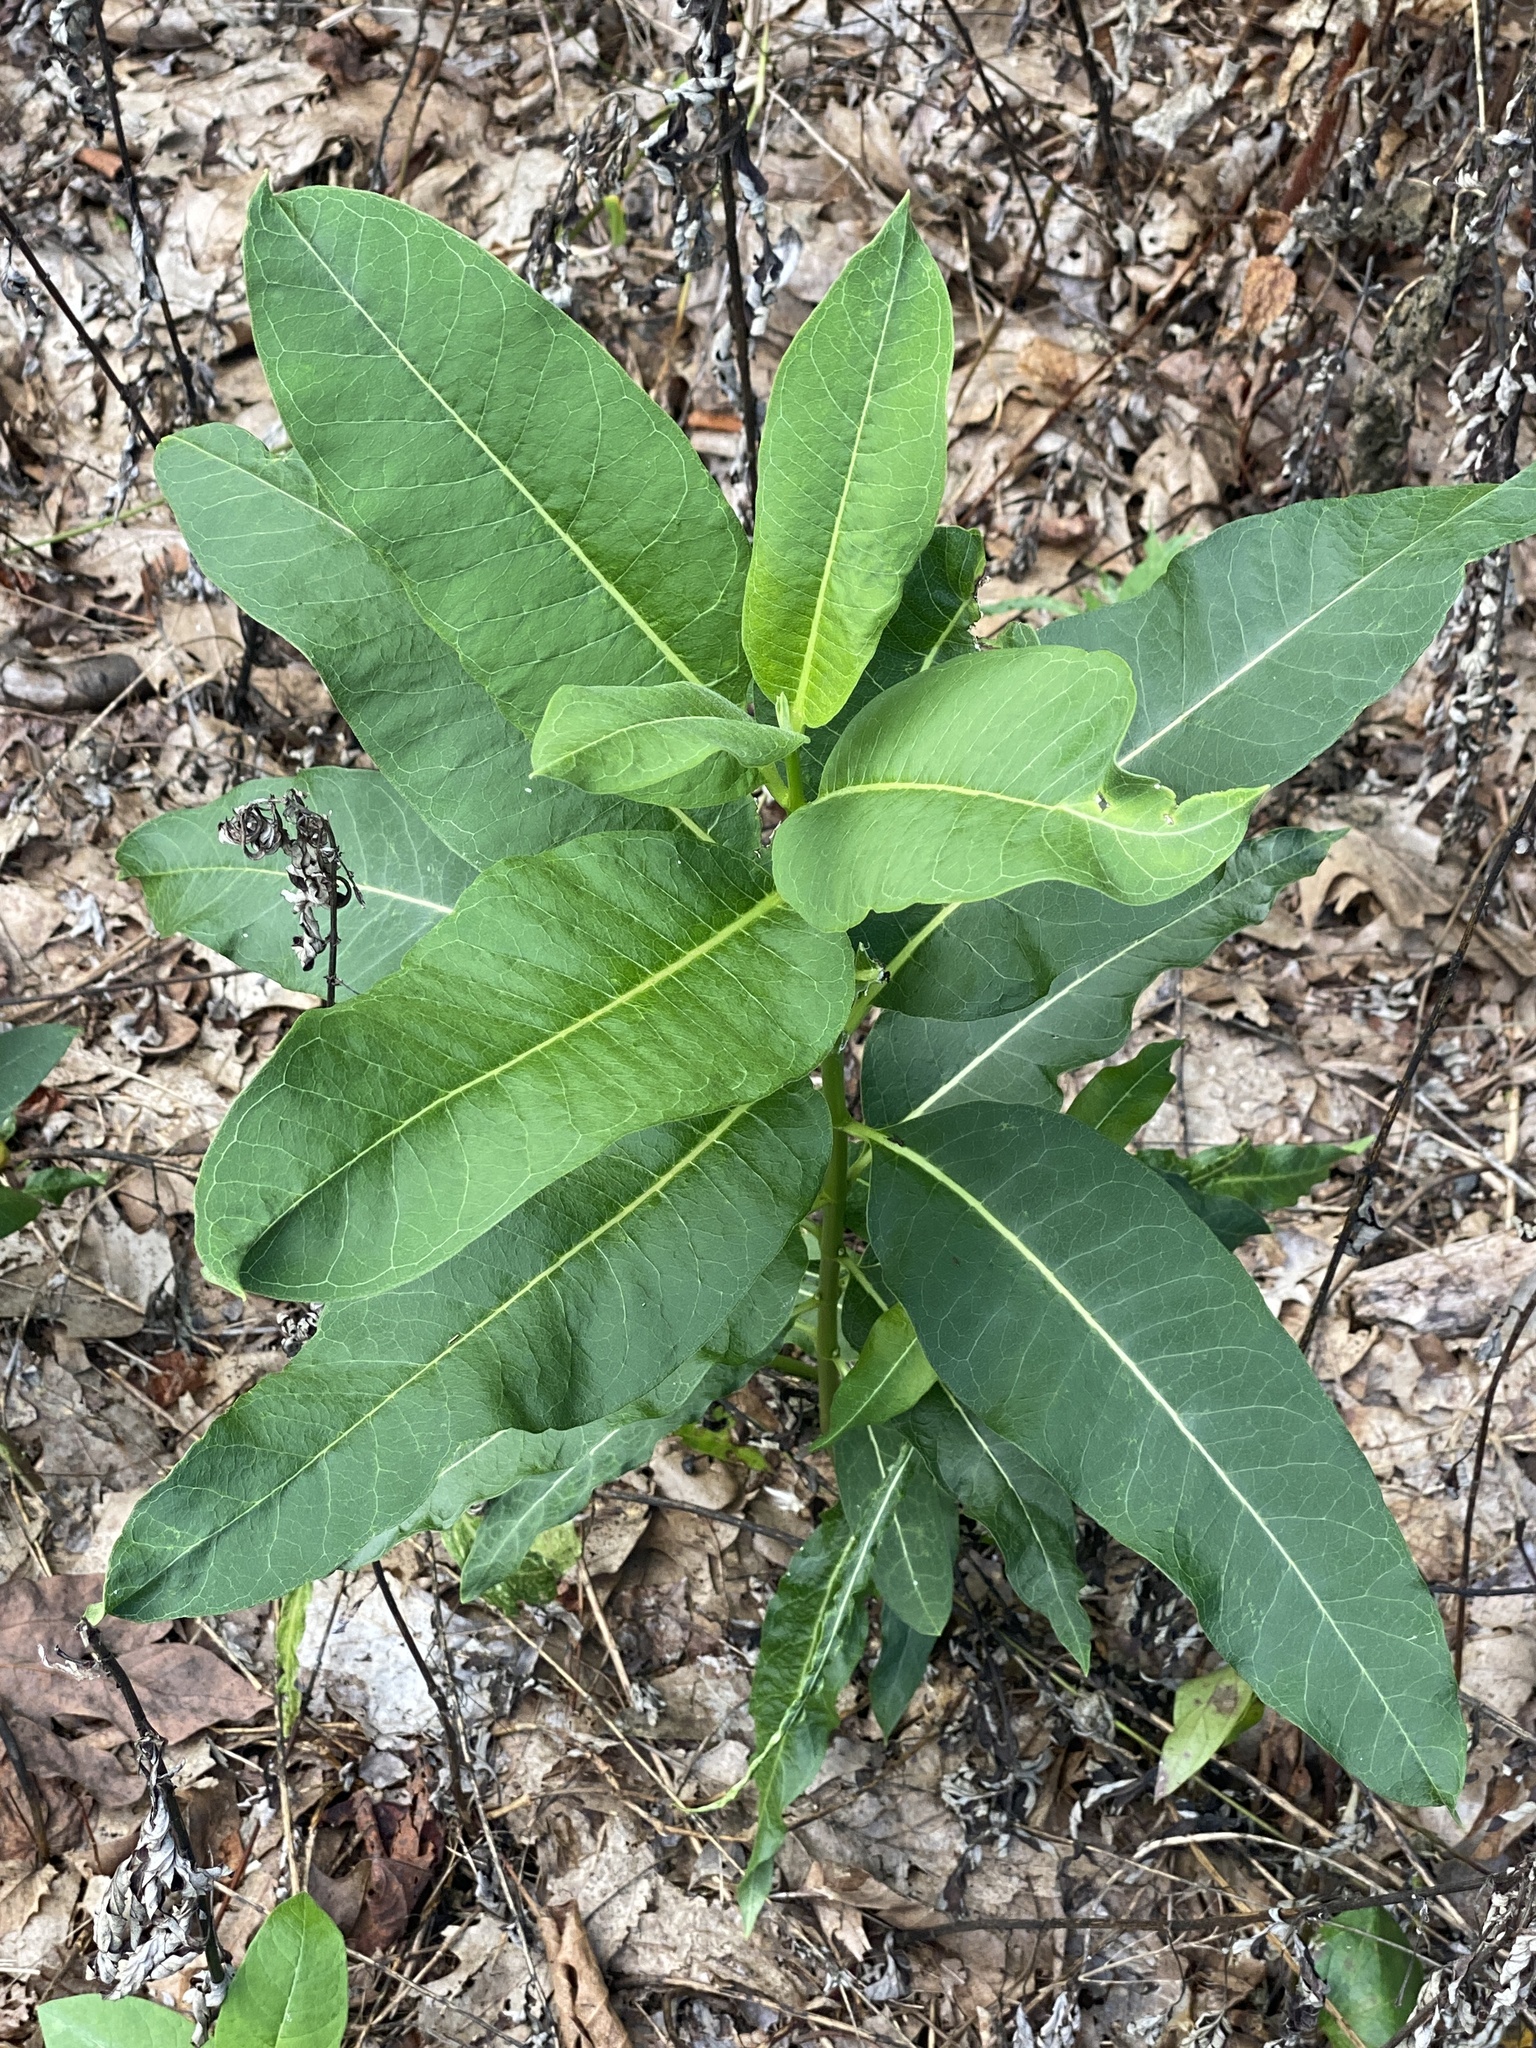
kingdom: Plantae
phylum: Tracheophyta
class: Magnoliopsida
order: Gentianales
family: Apocynaceae
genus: Asclepias
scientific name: Asclepias syriaca
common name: Common milkweed
